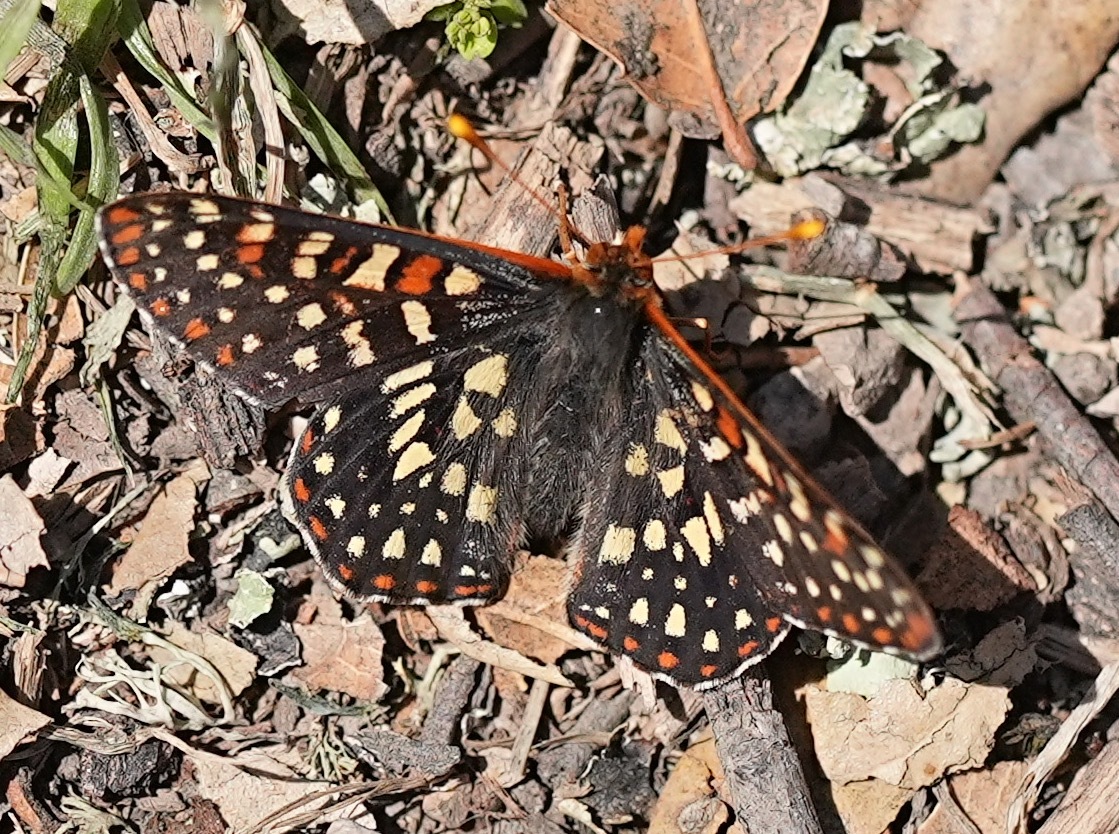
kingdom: Animalia
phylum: Arthropoda
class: Insecta
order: Lepidoptera
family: Nymphalidae
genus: Occidryas
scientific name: Occidryas chalcedona
